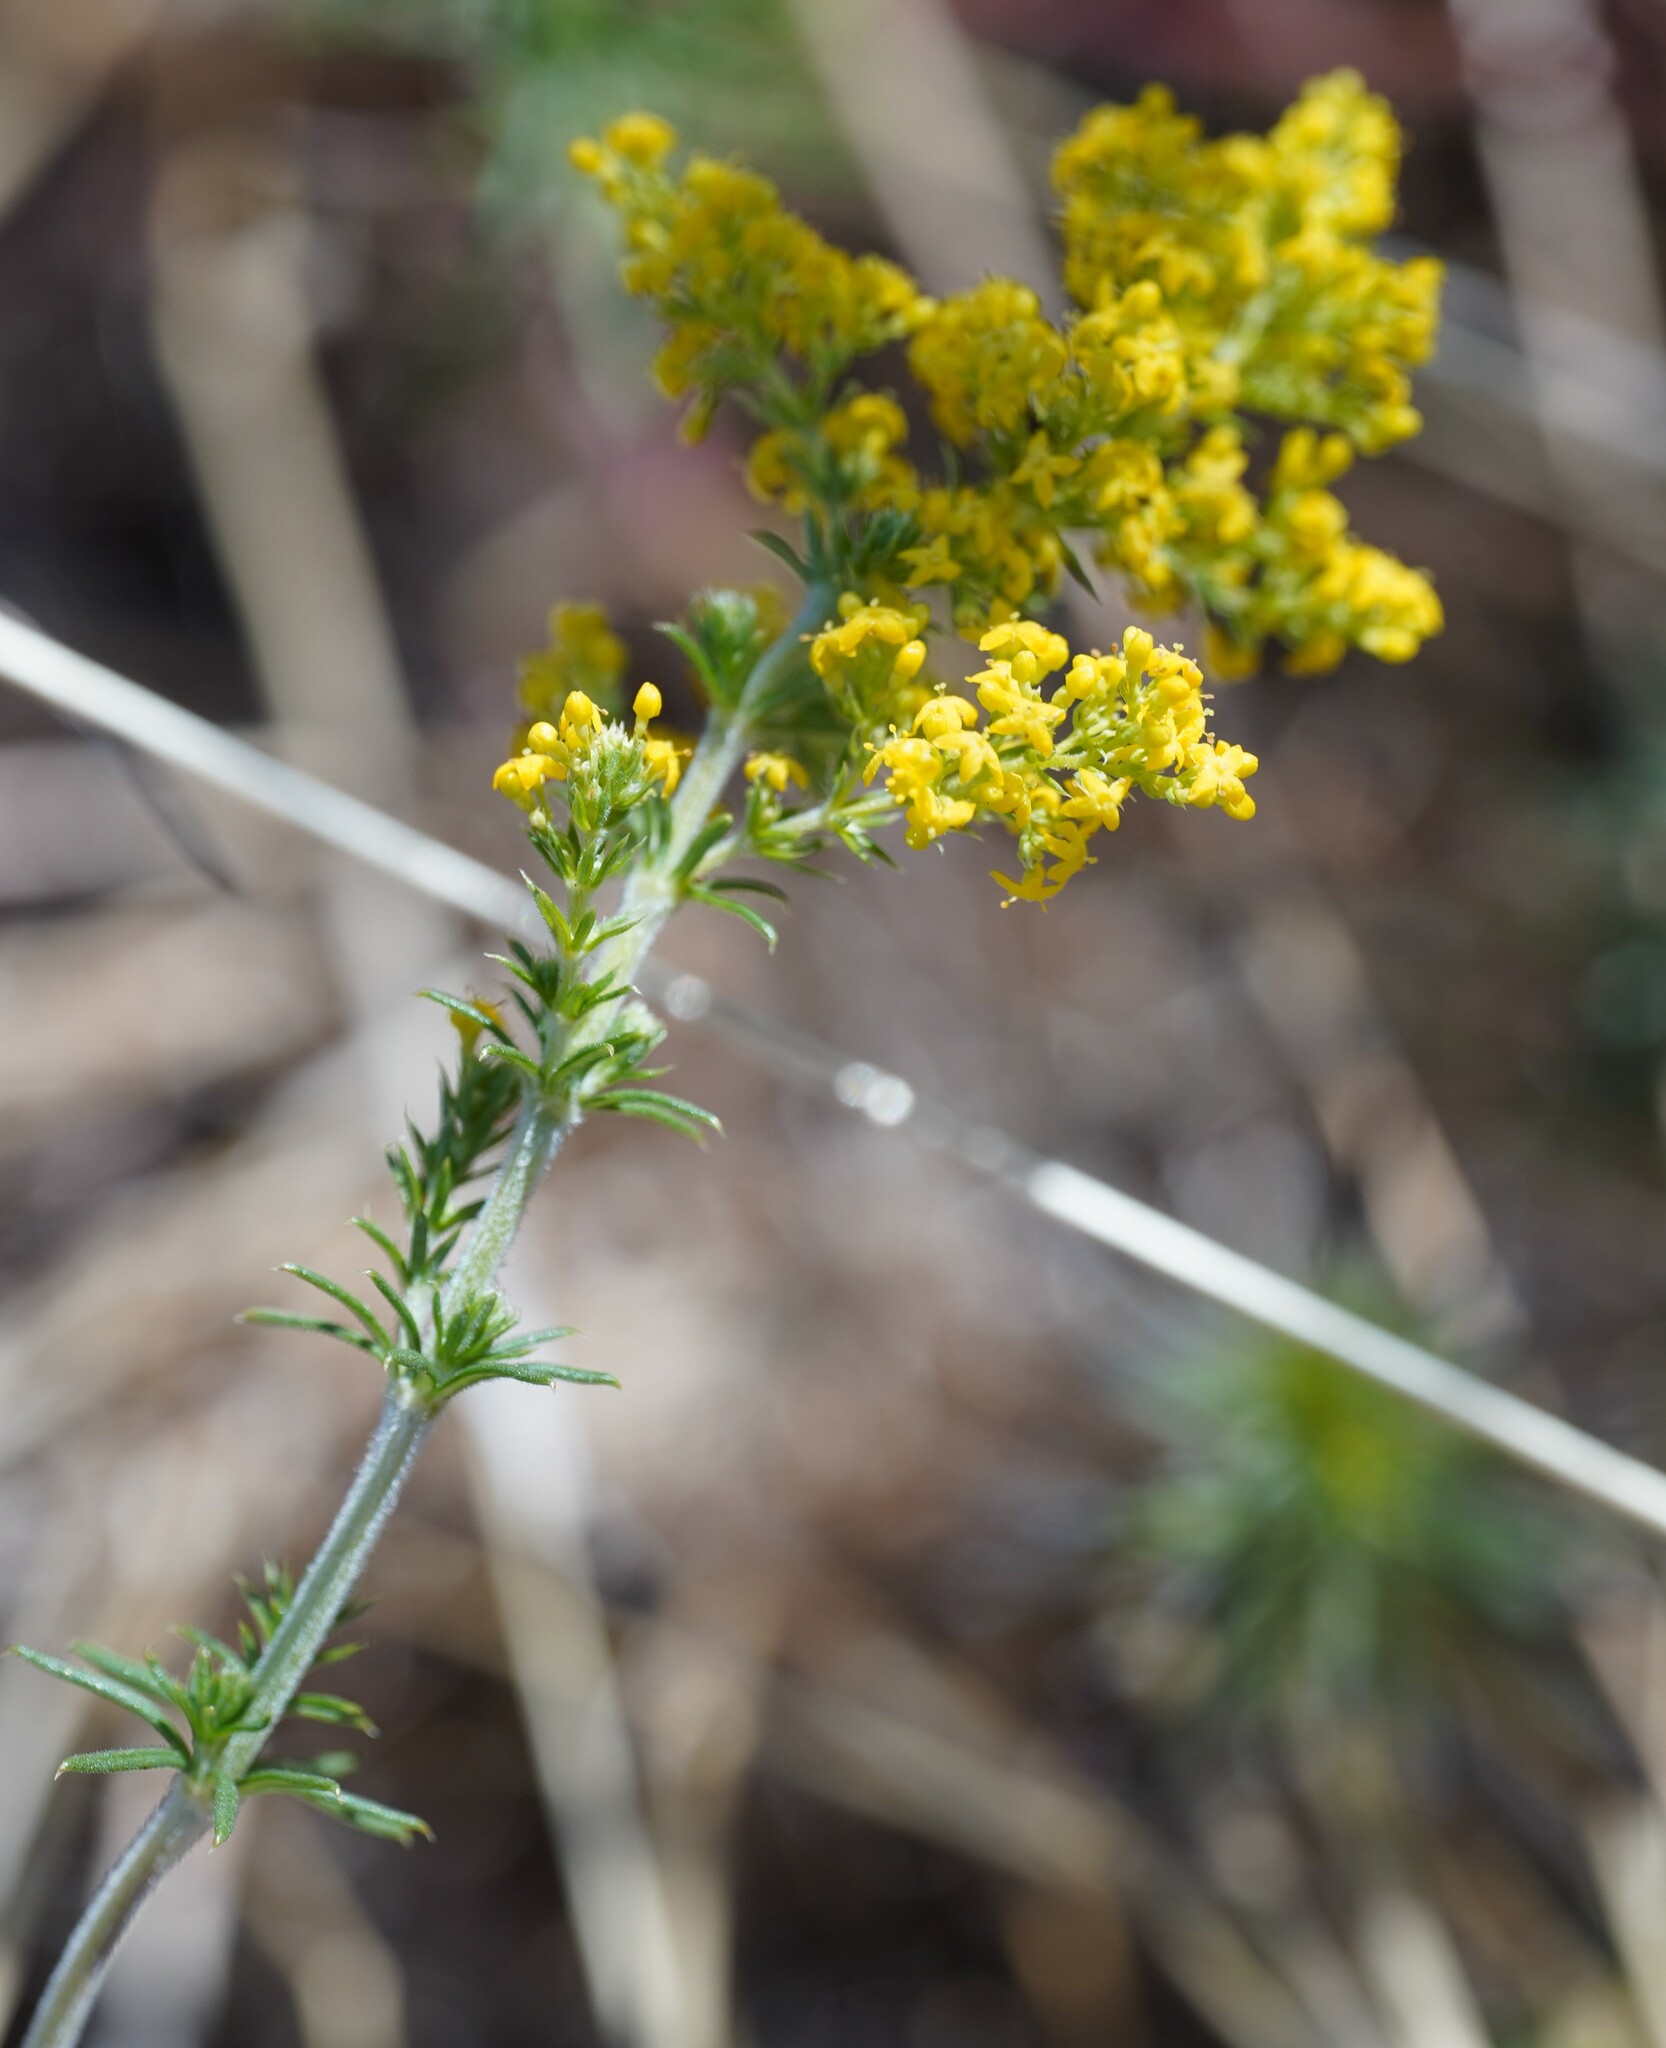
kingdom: Plantae
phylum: Tracheophyta
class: Magnoliopsida
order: Gentianales
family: Rubiaceae
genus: Galium
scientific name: Galium verum
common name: Lady's bedstraw
